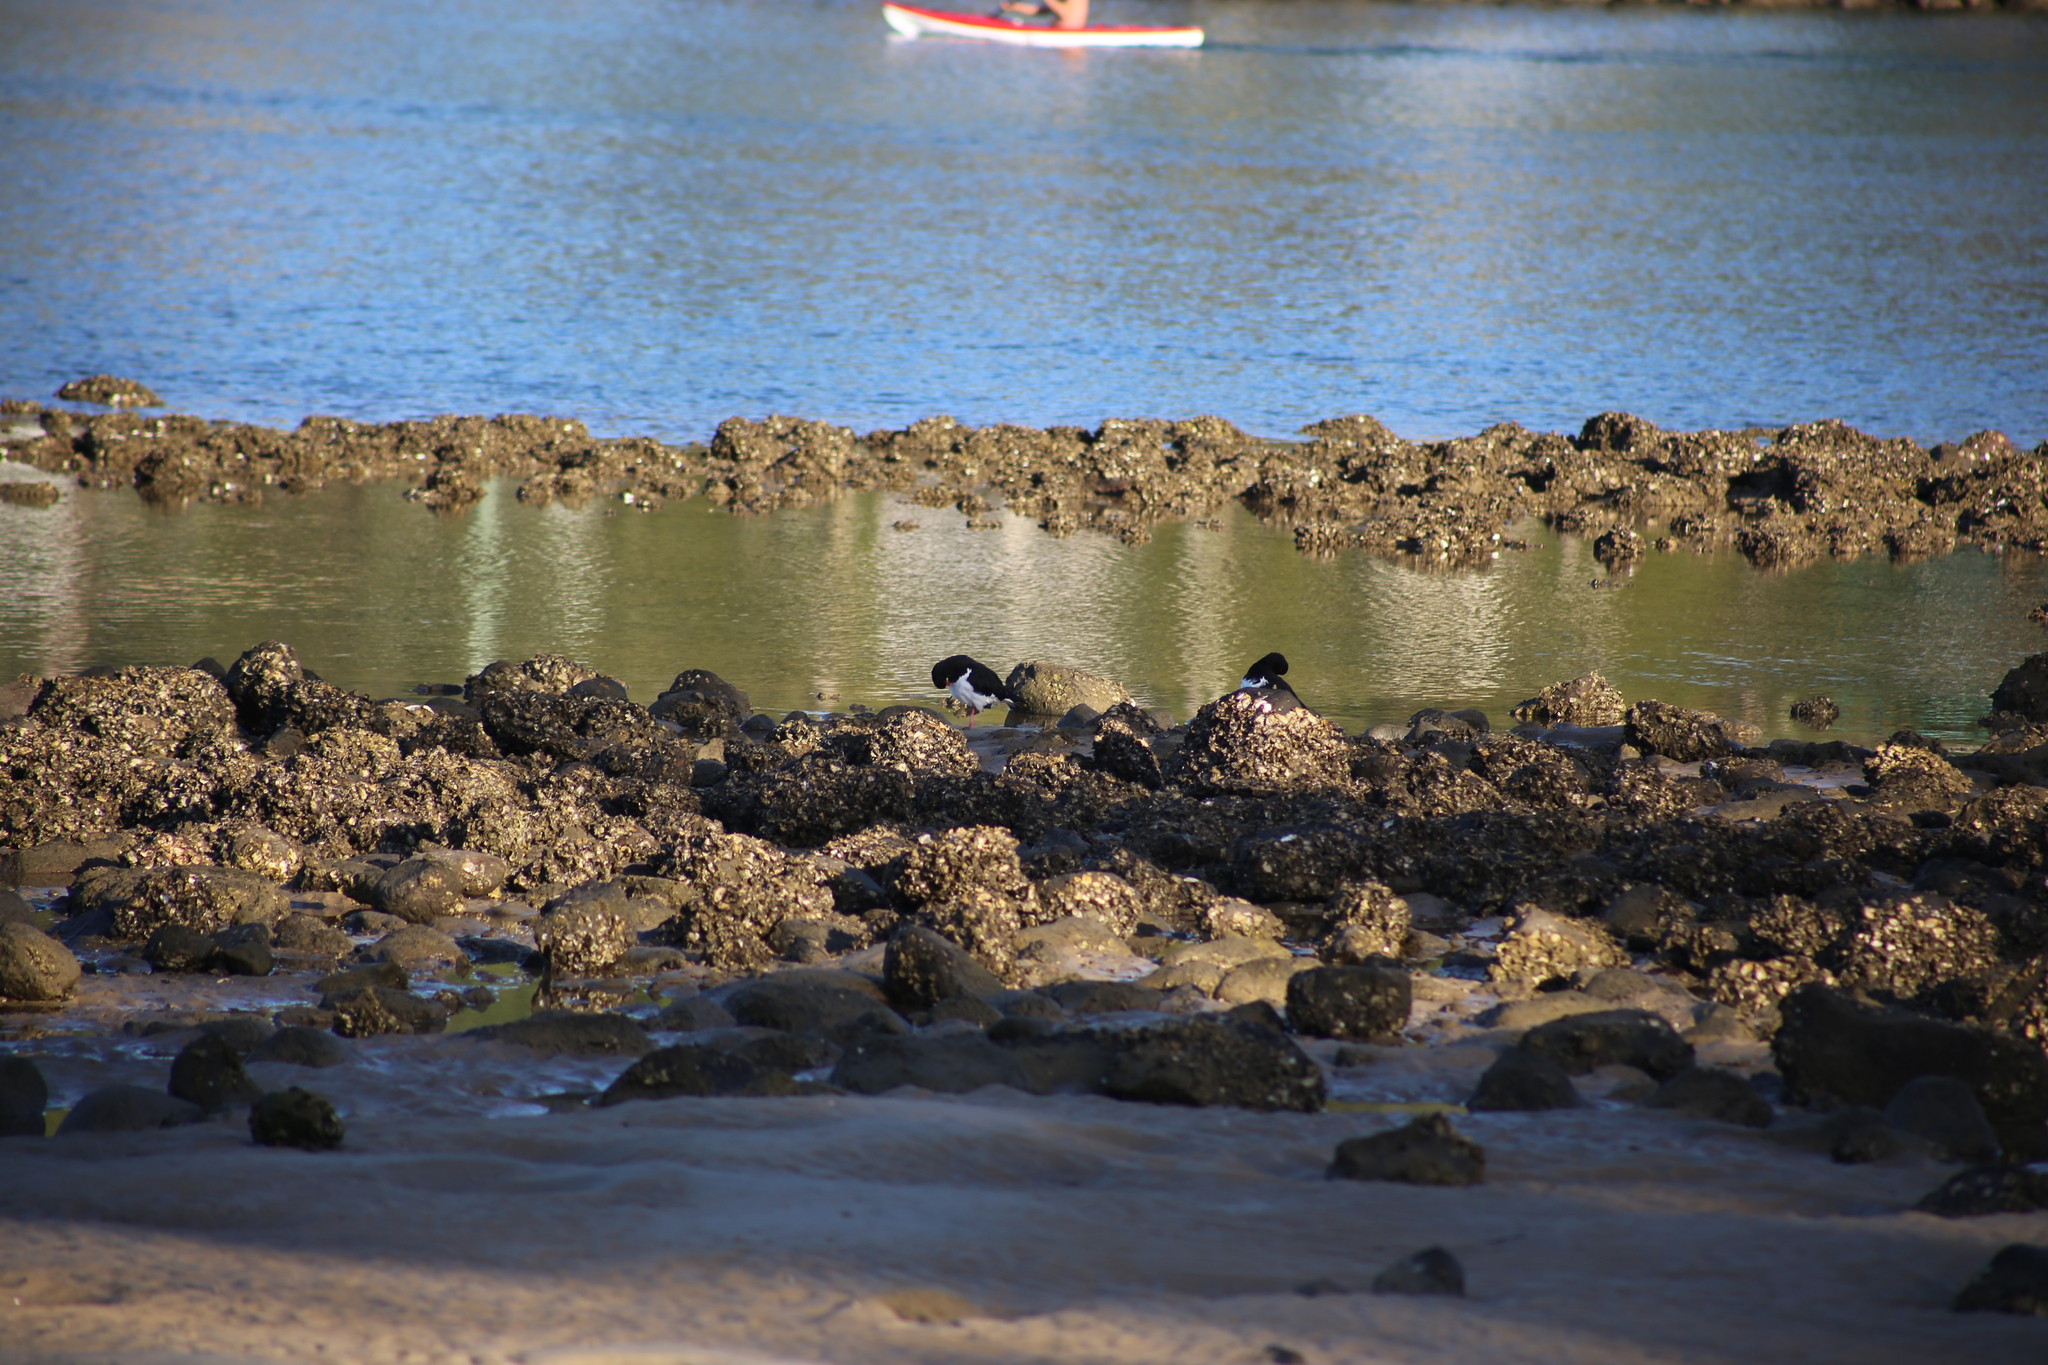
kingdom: Animalia
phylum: Chordata
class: Aves
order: Charadriiformes
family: Haematopodidae
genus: Haematopus
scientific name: Haematopus longirostris
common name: Pied oystercatcher
